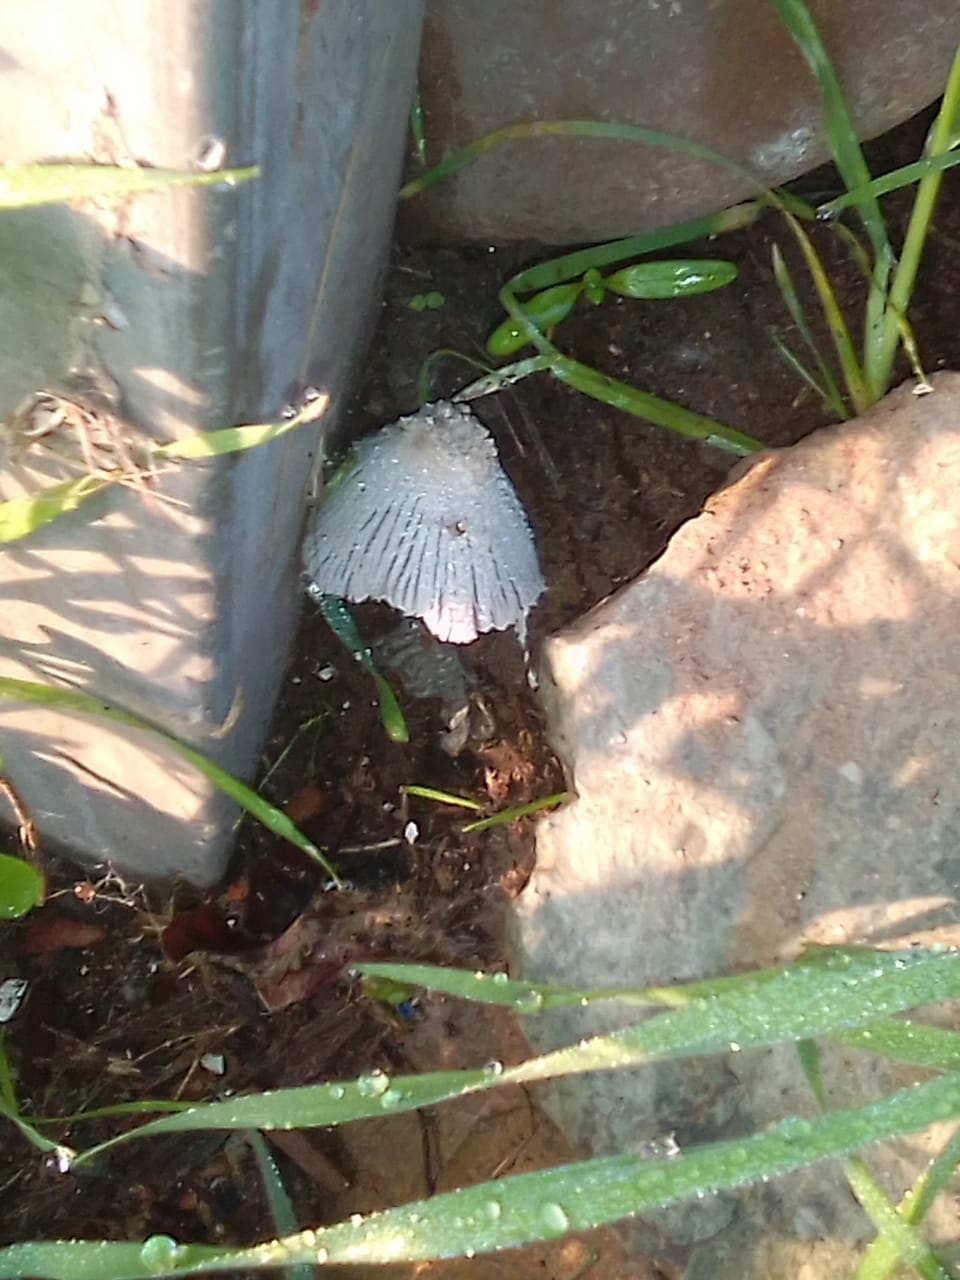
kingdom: Fungi
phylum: Basidiomycota
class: Agaricomycetes
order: Agaricales
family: Psathyrellaceae
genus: Coprinopsis
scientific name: Coprinopsis lagopus
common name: Hare'sfoot inkcap
